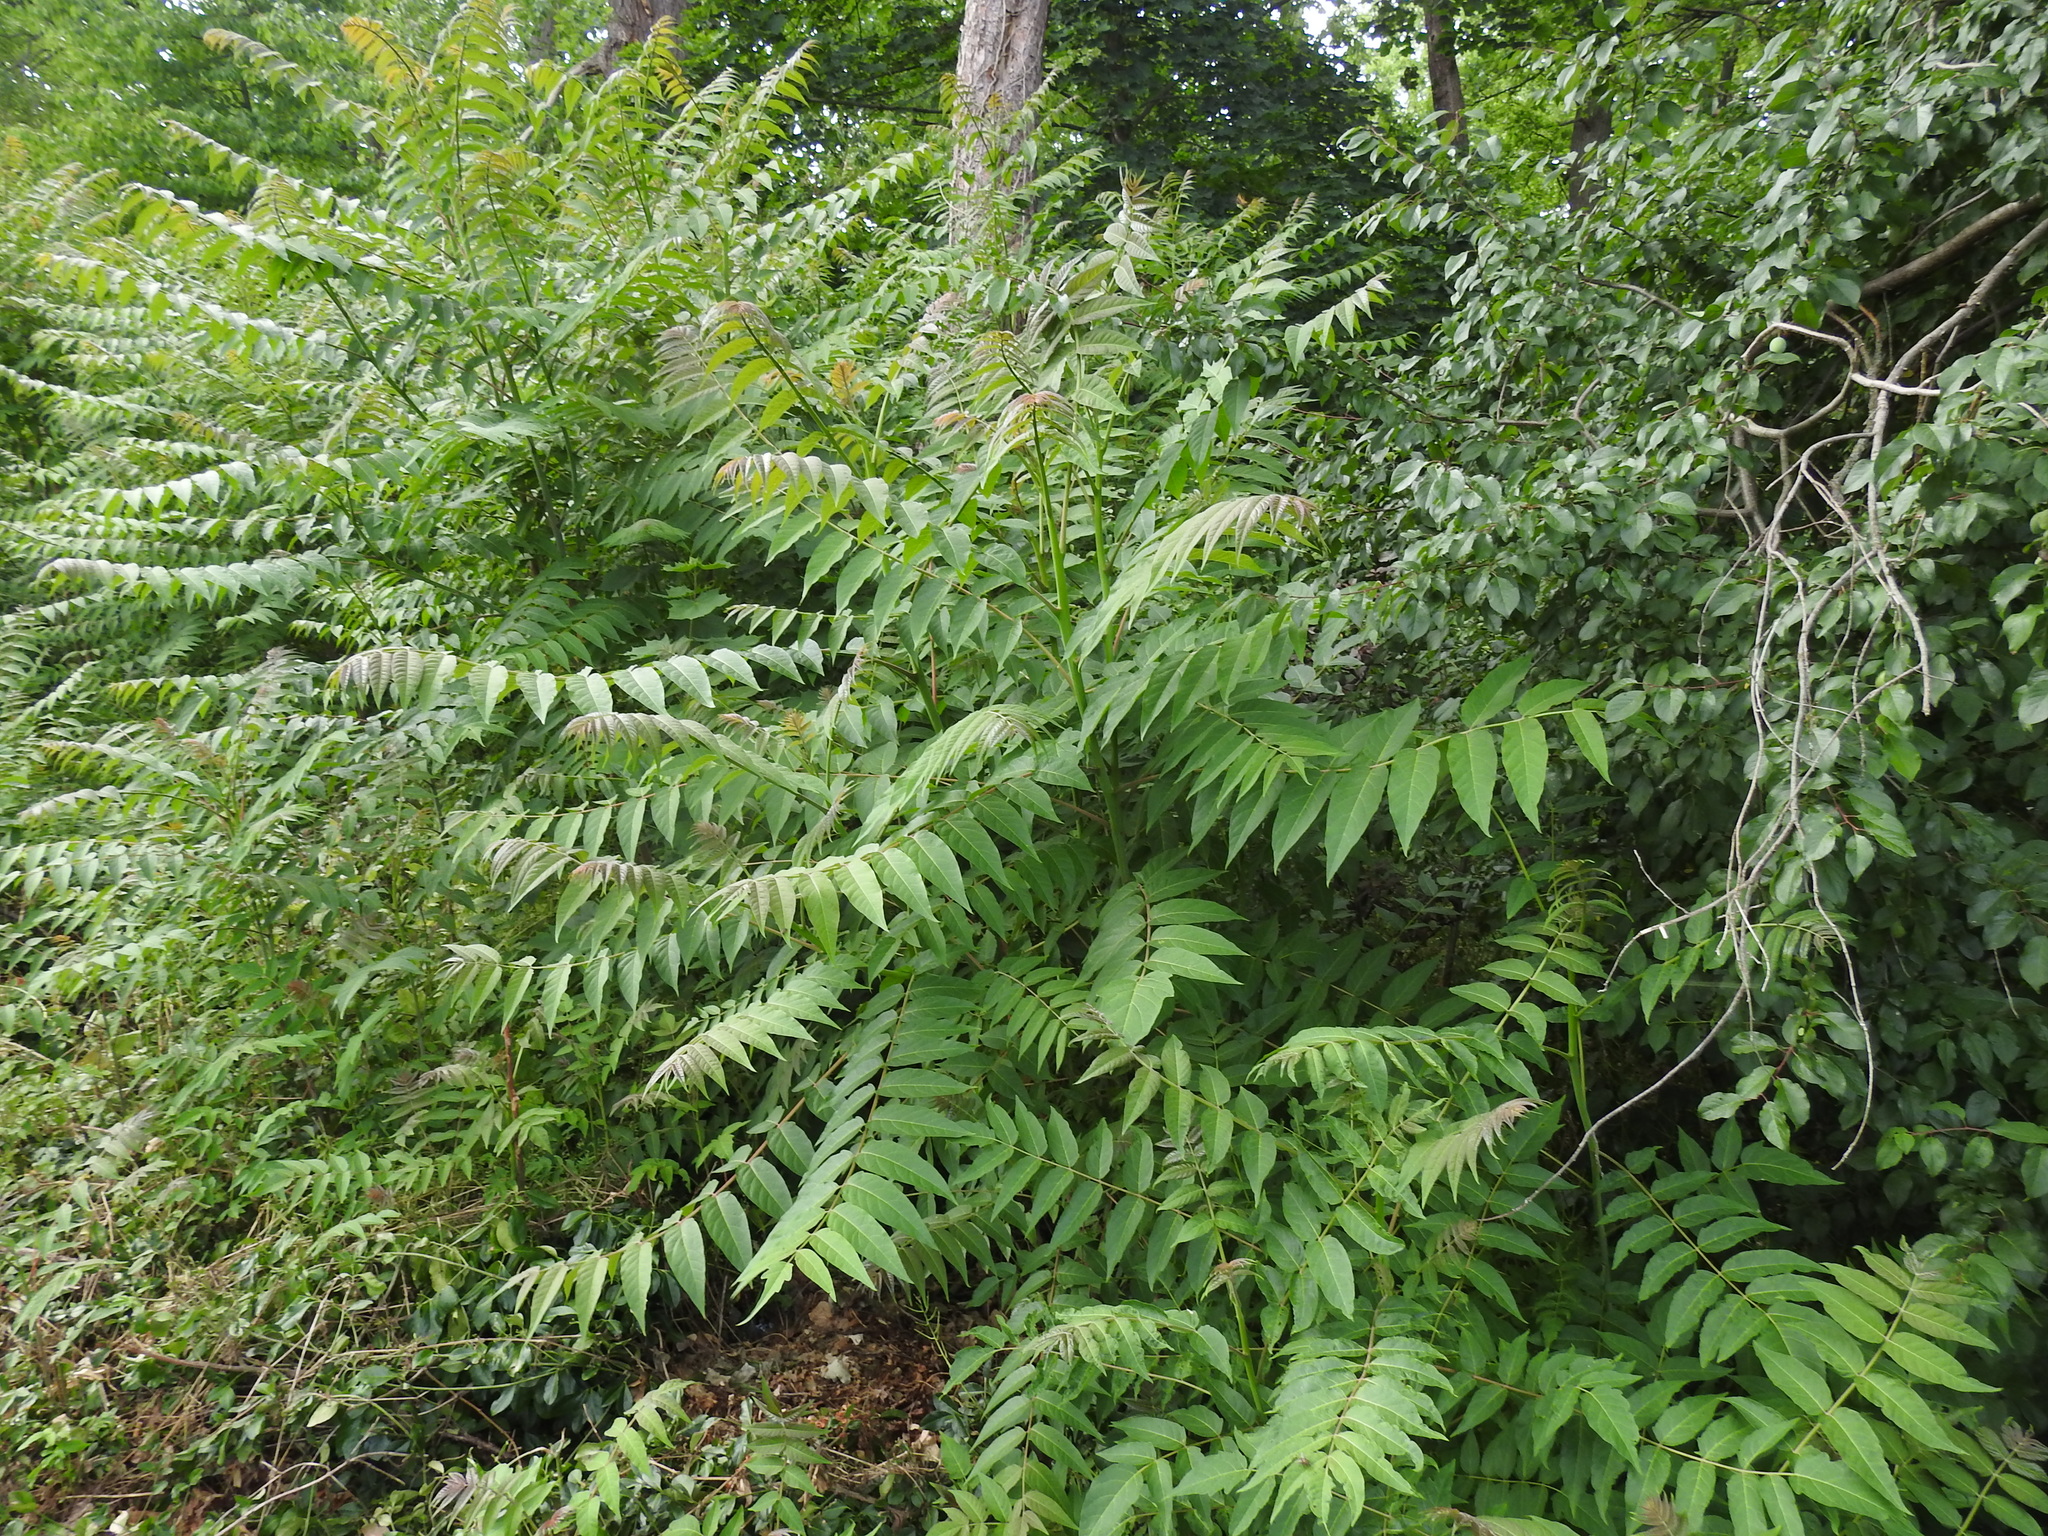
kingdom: Plantae
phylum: Tracheophyta
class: Magnoliopsida
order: Sapindales
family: Simaroubaceae
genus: Ailanthus
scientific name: Ailanthus altissima
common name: Tree-of-heaven
